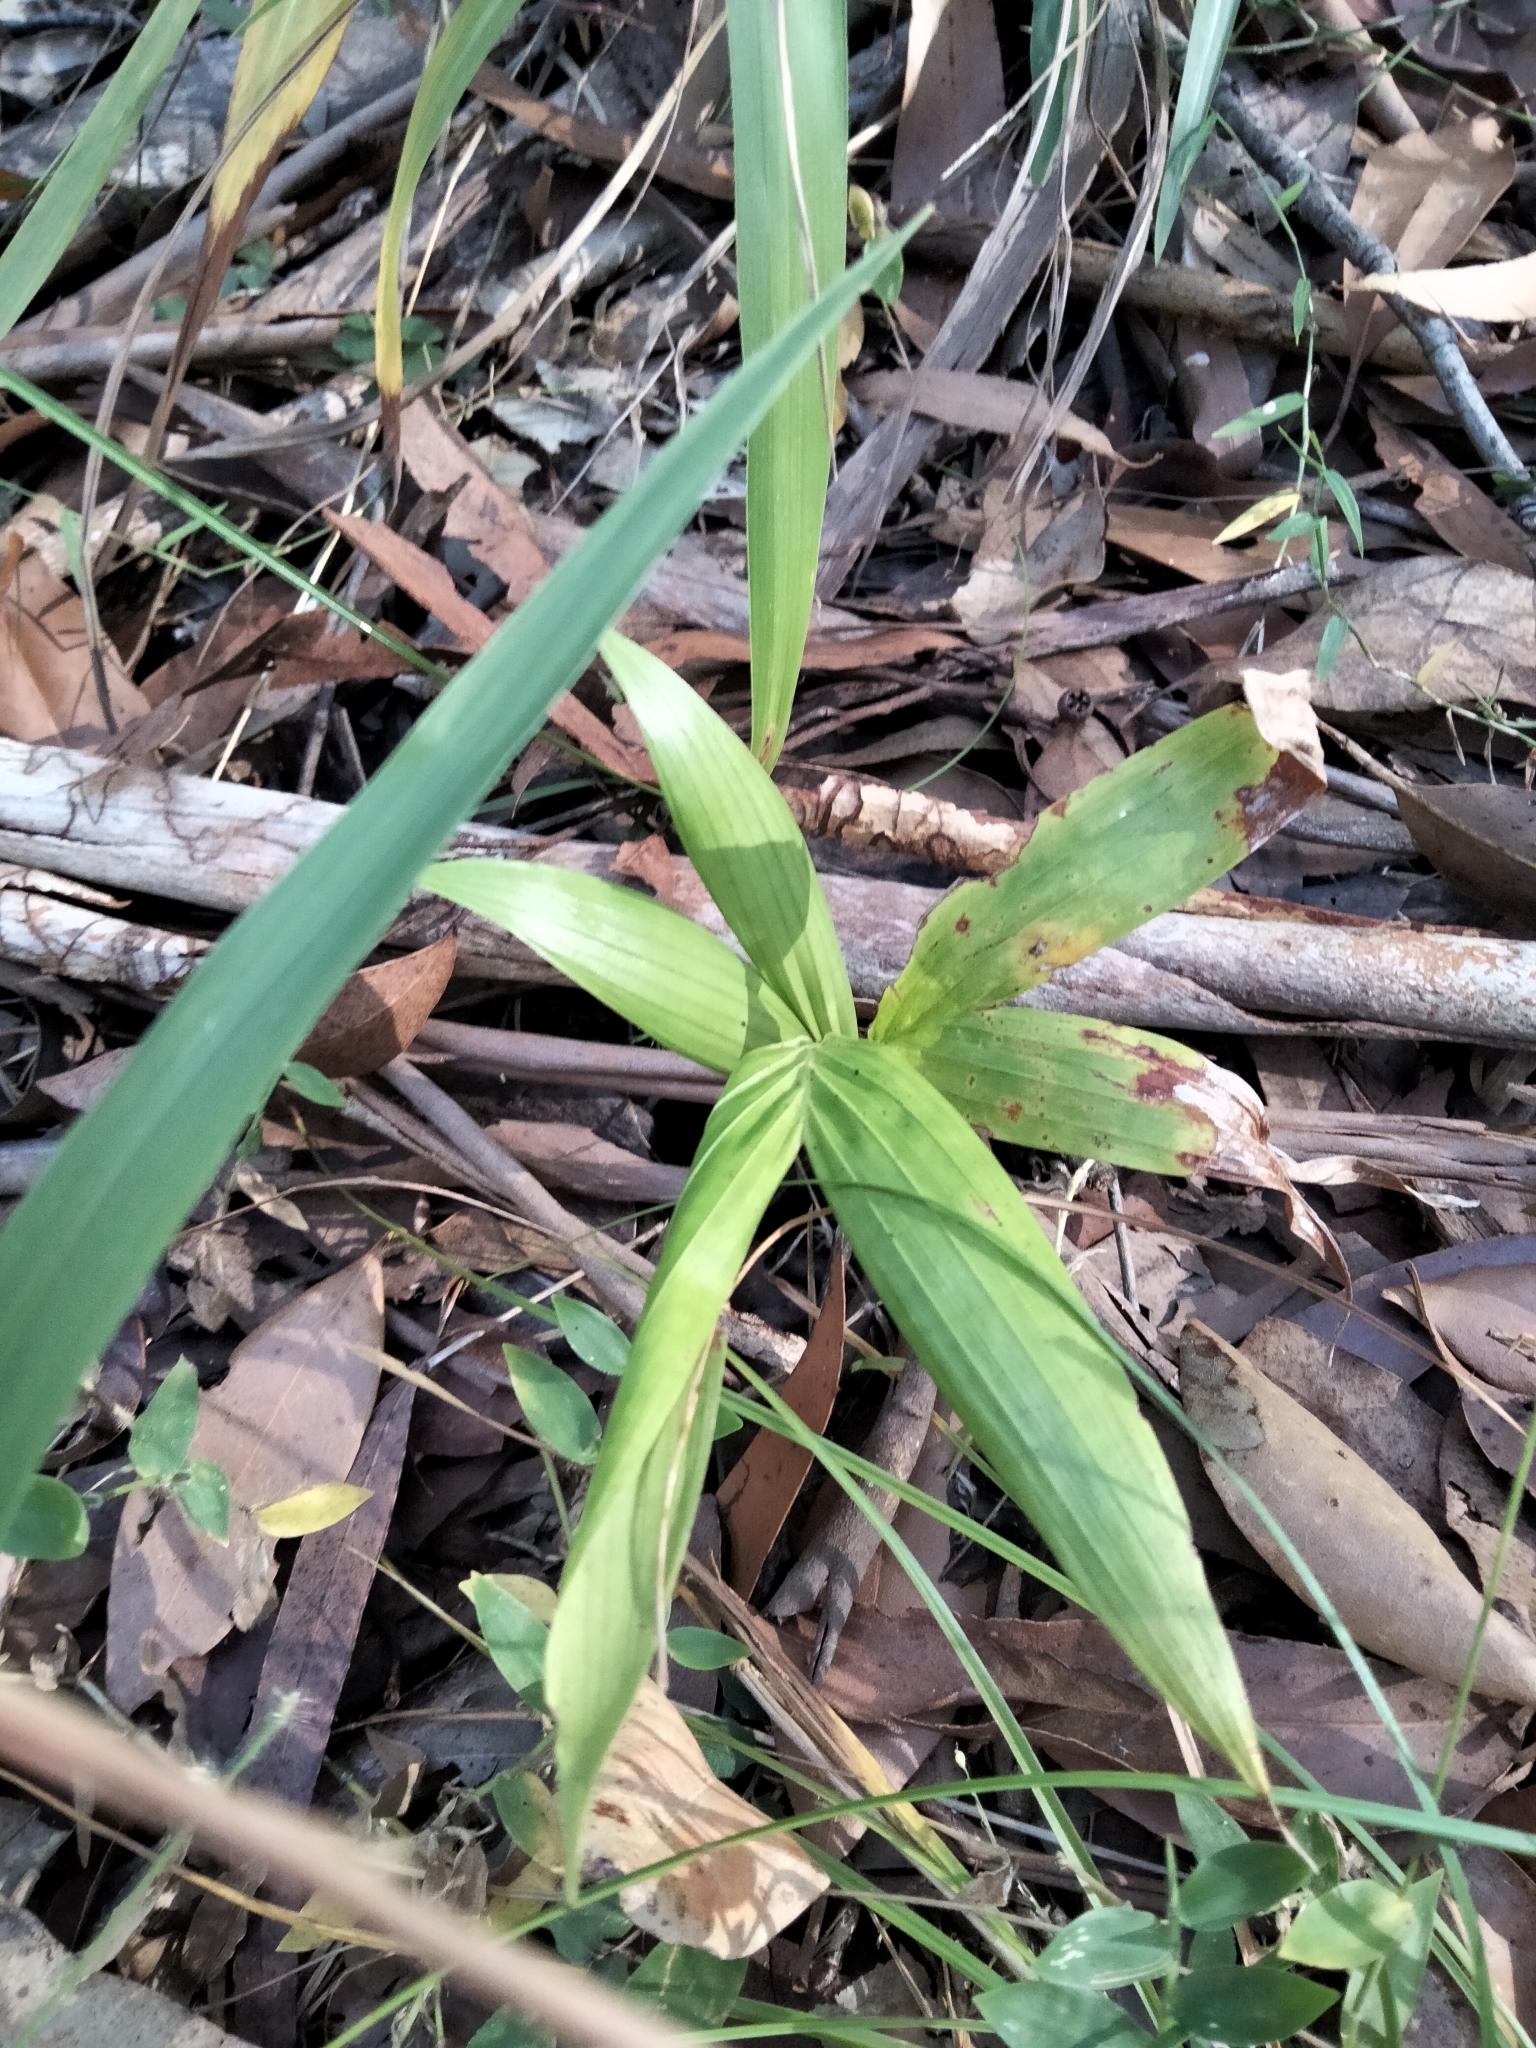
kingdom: Plantae
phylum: Tracheophyta
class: Liliopsida
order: Arecales
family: Arecaceae
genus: Archontophoenix
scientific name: Archontophoenix cunninghamiana
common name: Piccabeen bangalow palm
